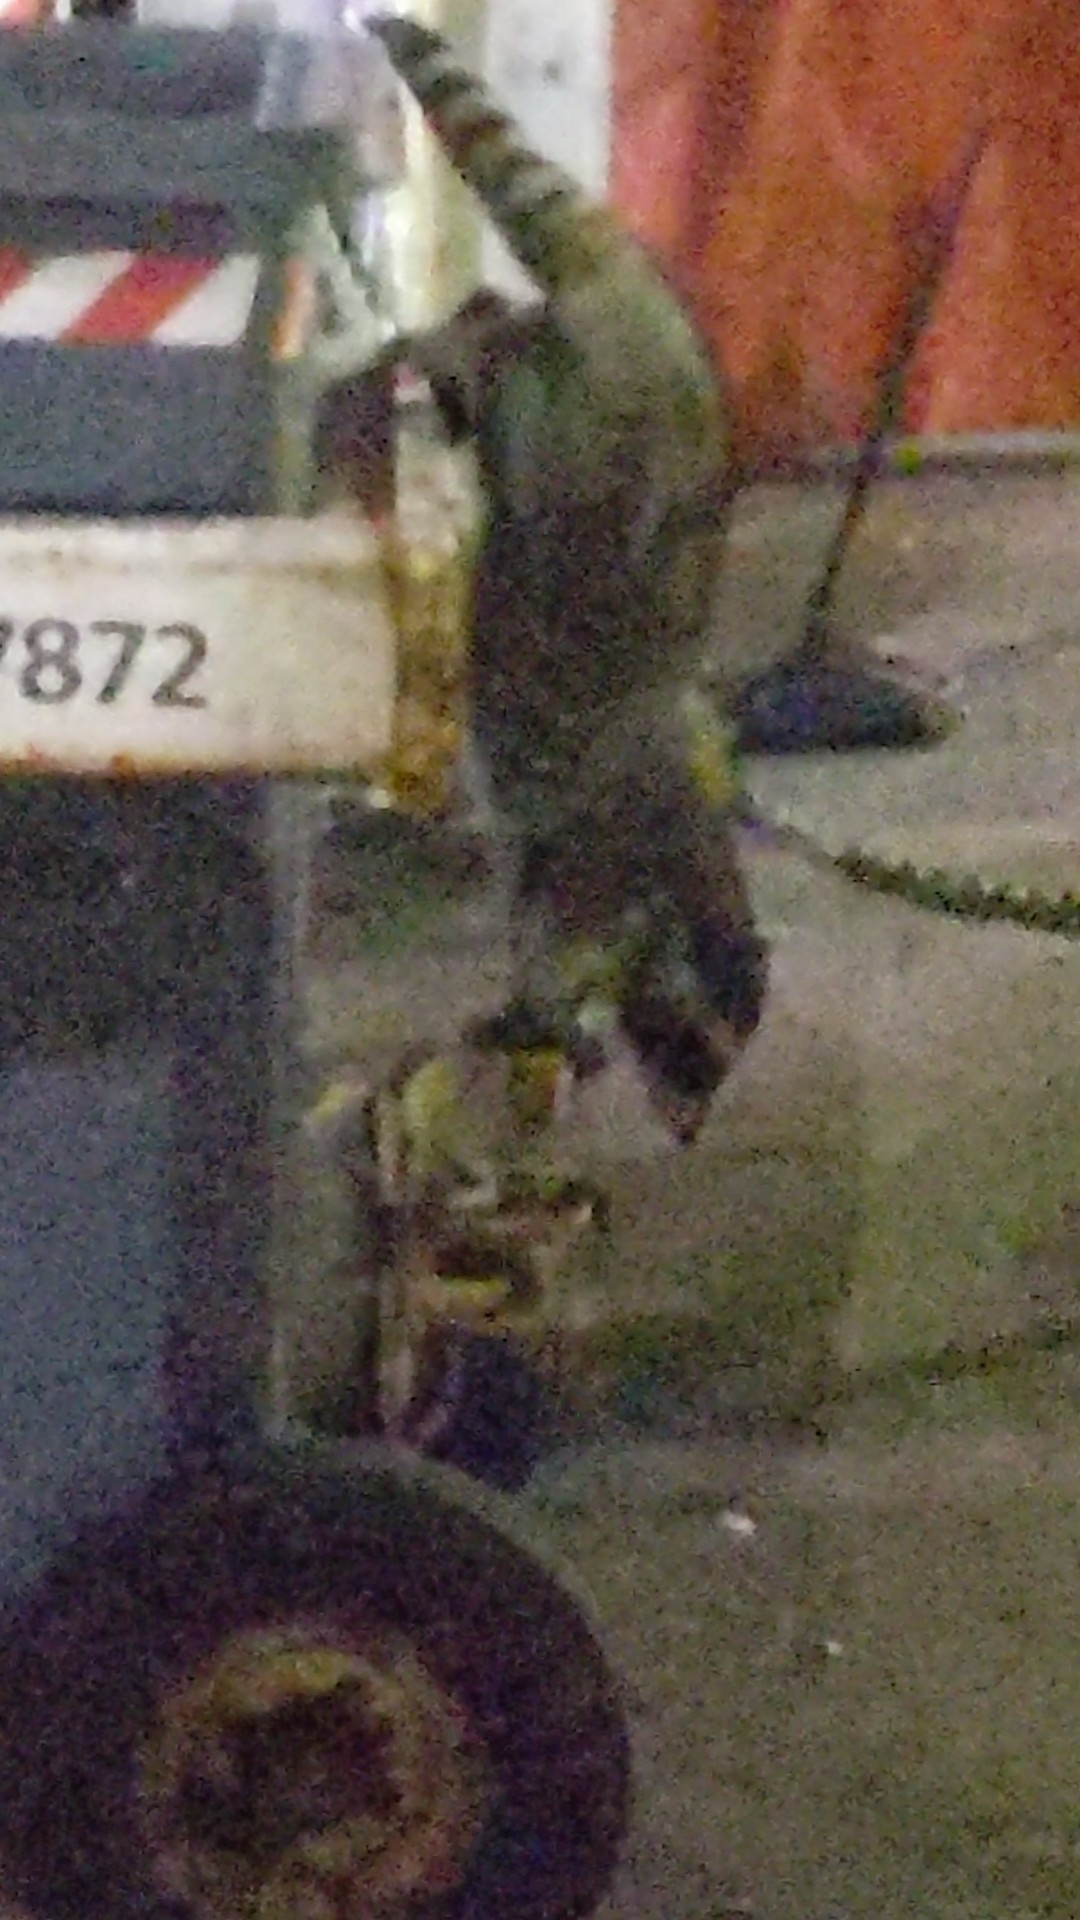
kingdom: Animalia
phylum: Chordata
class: Mammalia
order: Carnivora
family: Procyonidae
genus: Procyon
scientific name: Procyon lotor
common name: Raccoon
